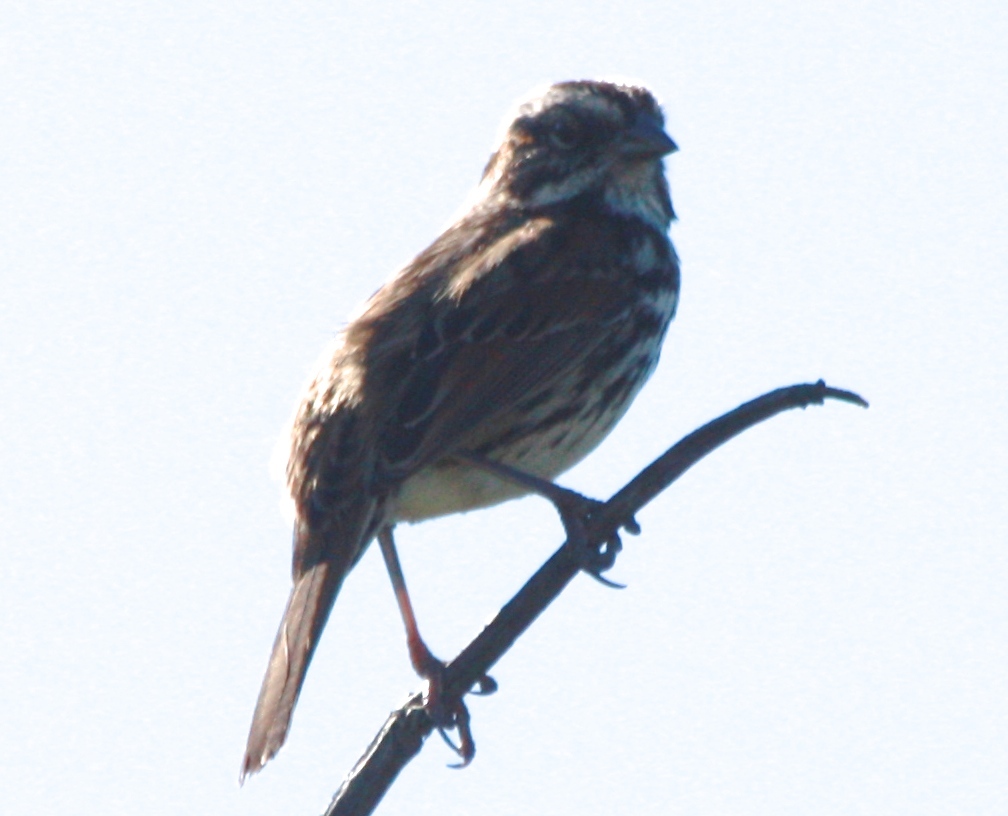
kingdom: Animalia
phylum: Chordata
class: Aves
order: Passeriformes
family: Passerellidae
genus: Melospiza
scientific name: Melospiza melodia
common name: Song sparrow
